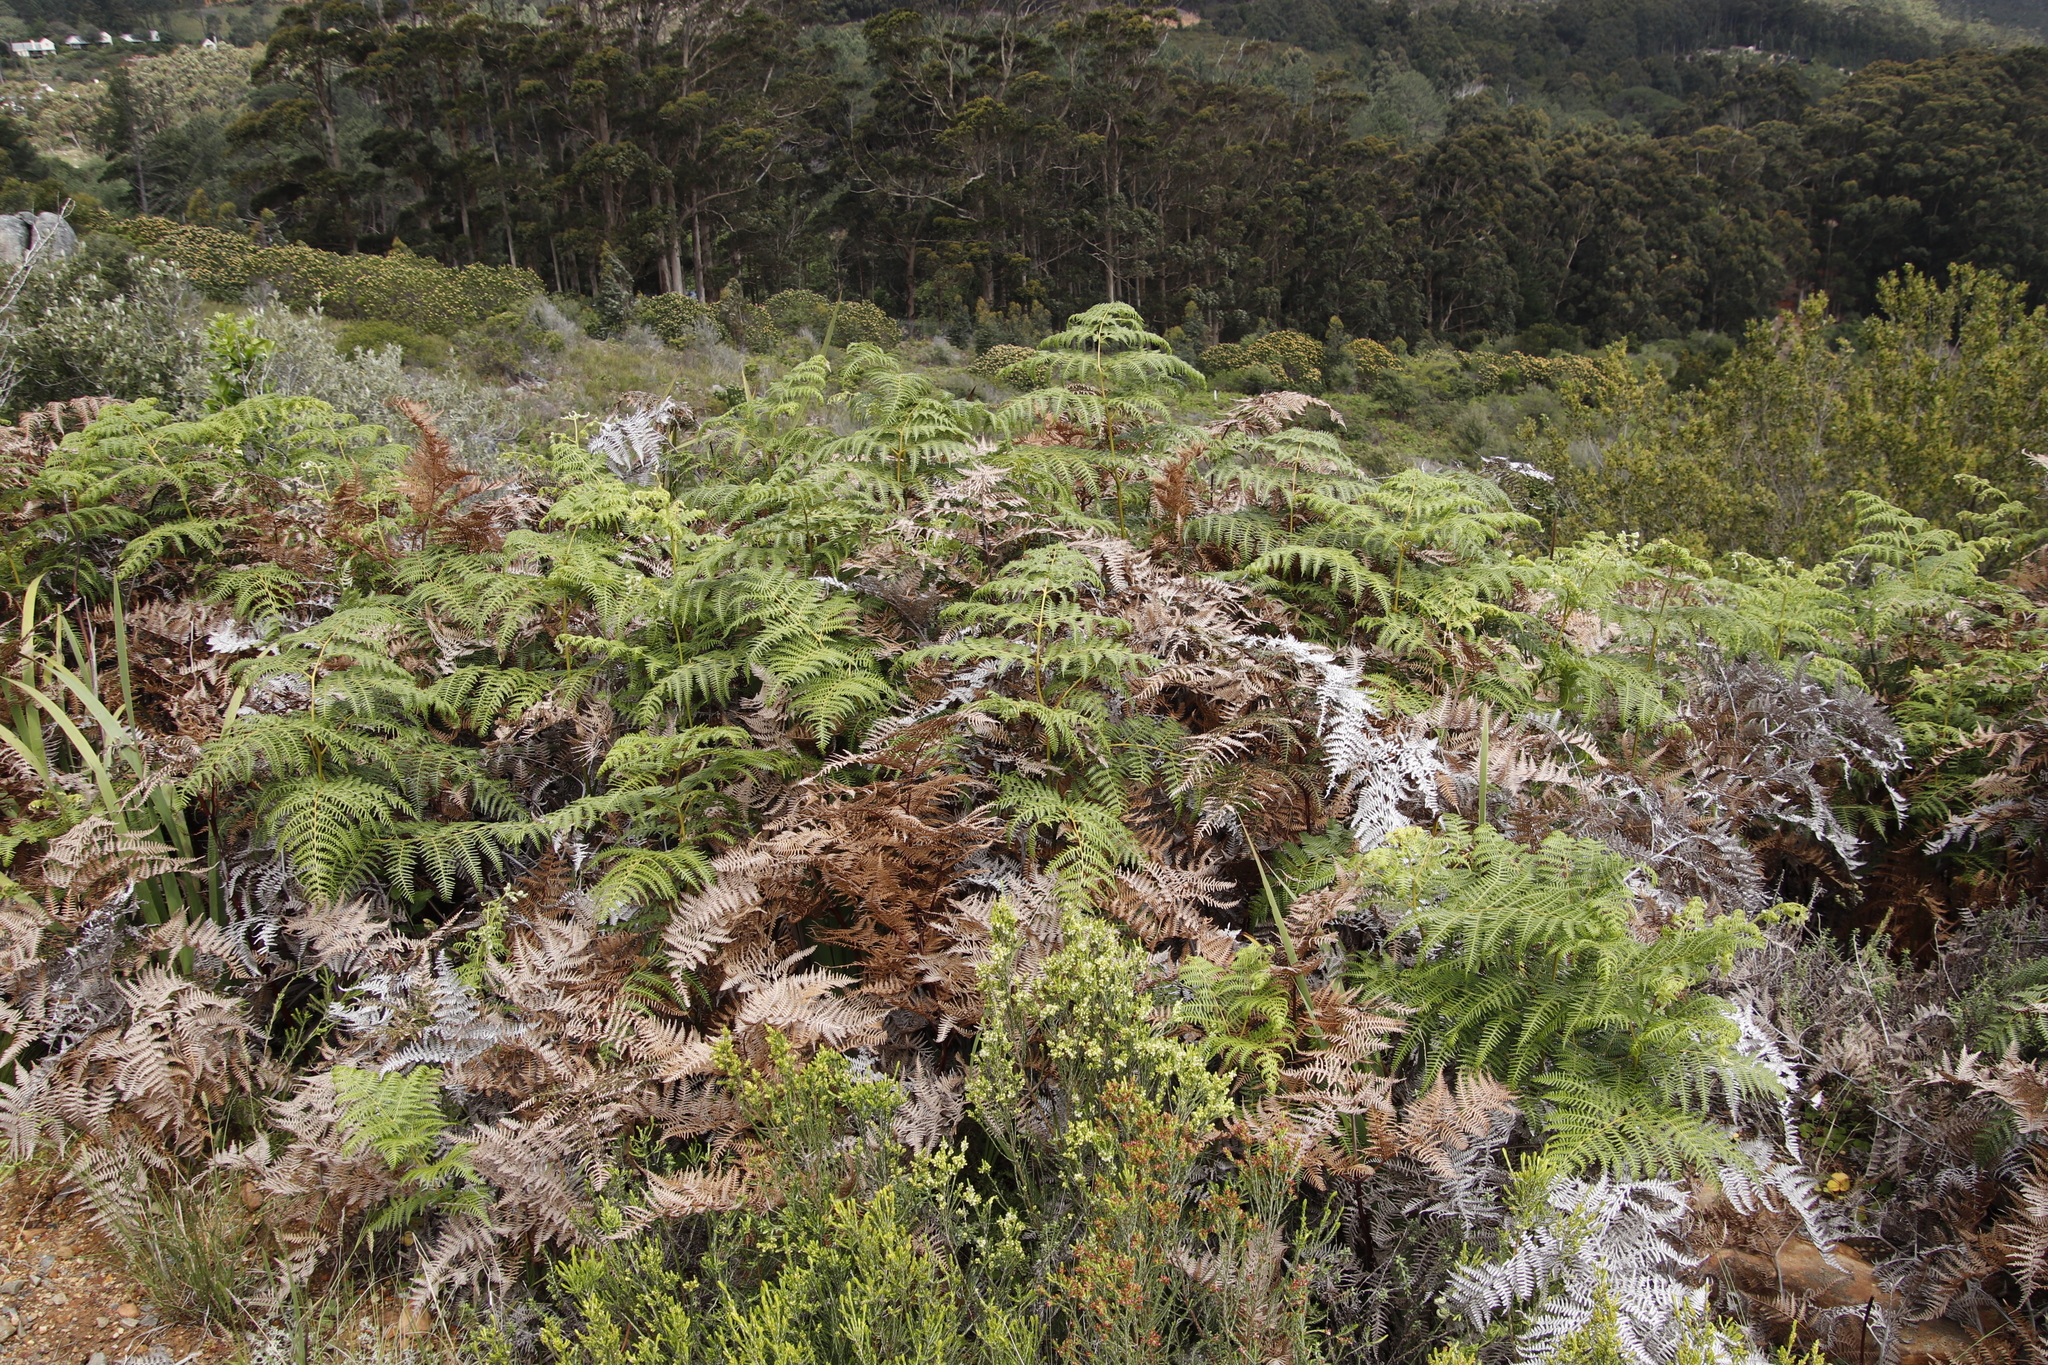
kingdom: Plantae
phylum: Tracheophyta
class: Polypodiopsida
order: Polypodiales
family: Dennstaedtiaceae
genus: Pteridium
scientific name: Pteridium aquilinum
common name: Bracken
